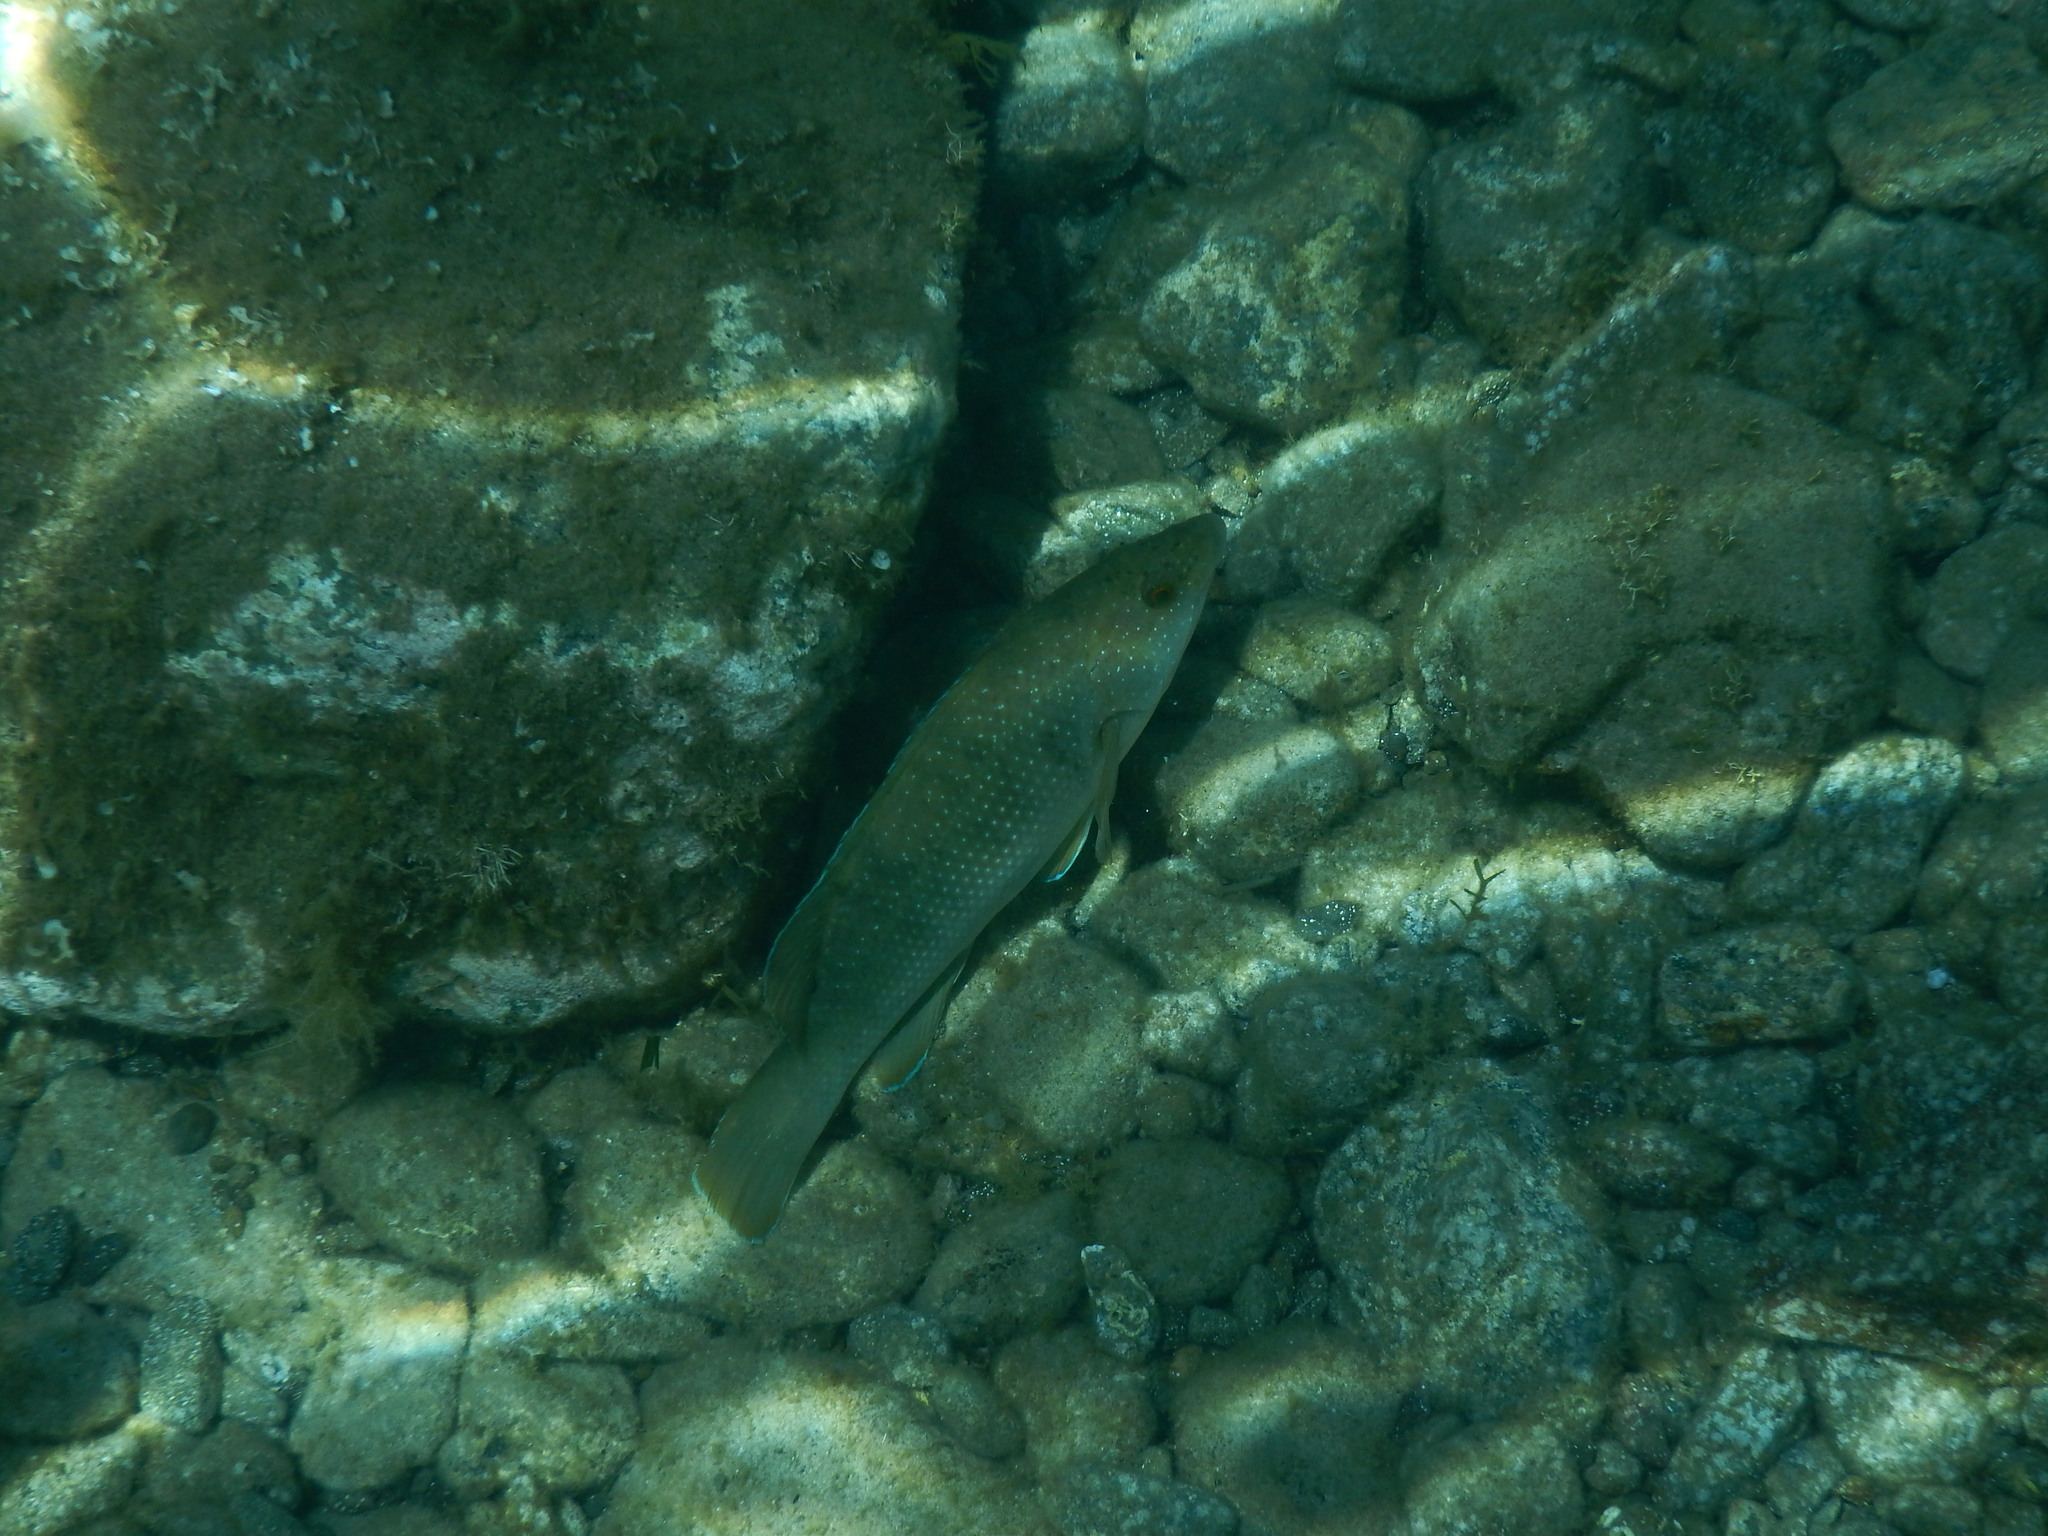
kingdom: Animalia
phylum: Chordata
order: Perciformes
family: Labridae
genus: Labrus
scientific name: Labrus merula
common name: Brown wrasse
